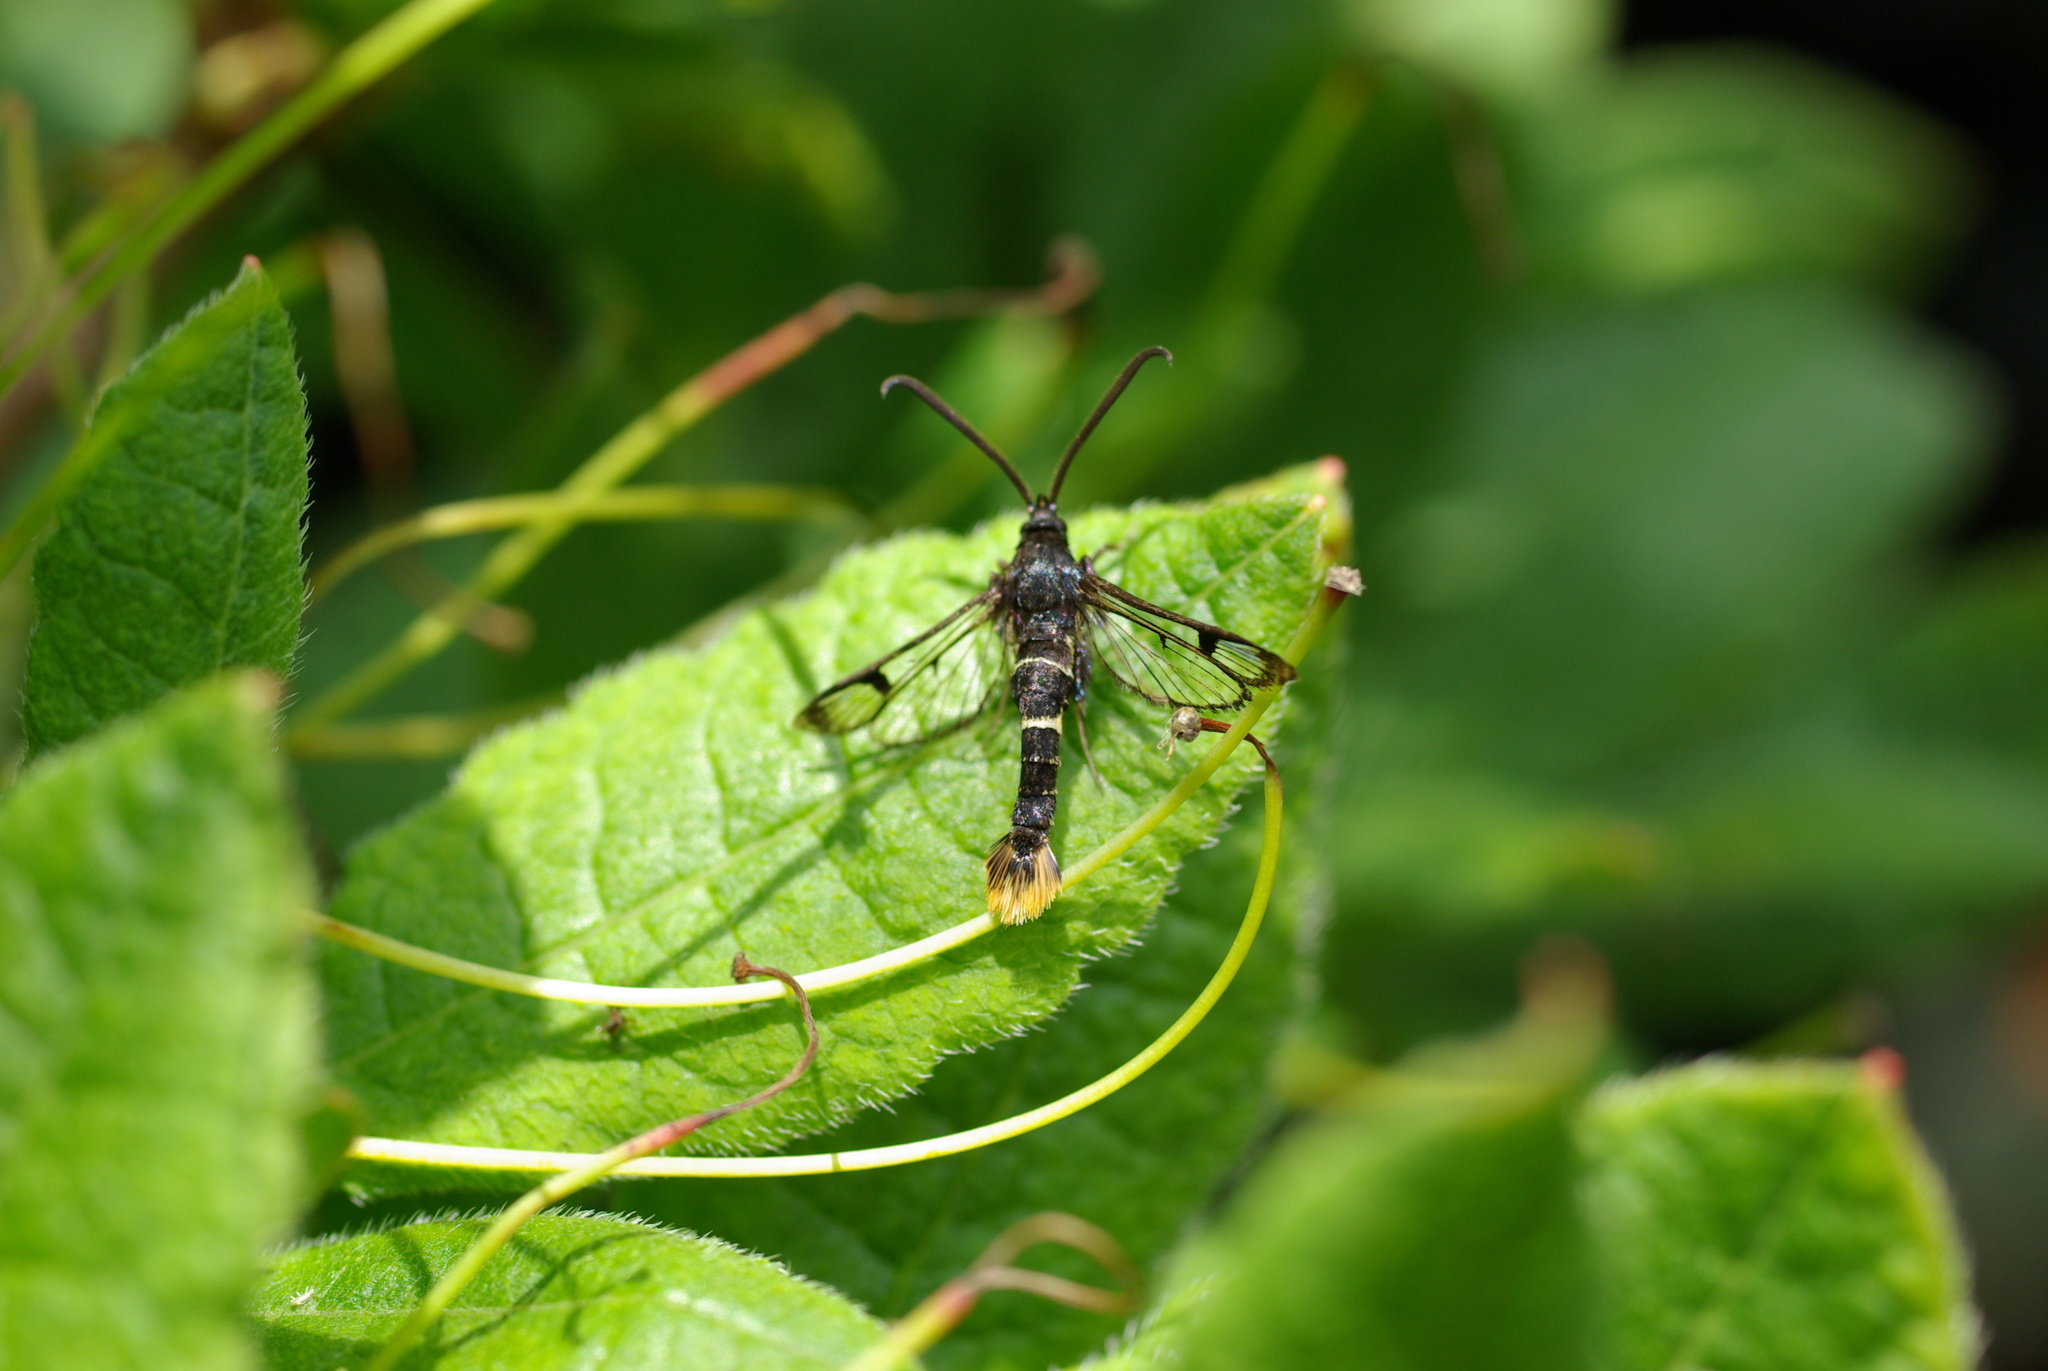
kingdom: Animalia
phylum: Arthropoda
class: Insecta
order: Lepidoptera
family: Sesiidae
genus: Synanthedon
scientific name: Synanthedon andrenaeformis
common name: Orange-tailed clearwing
